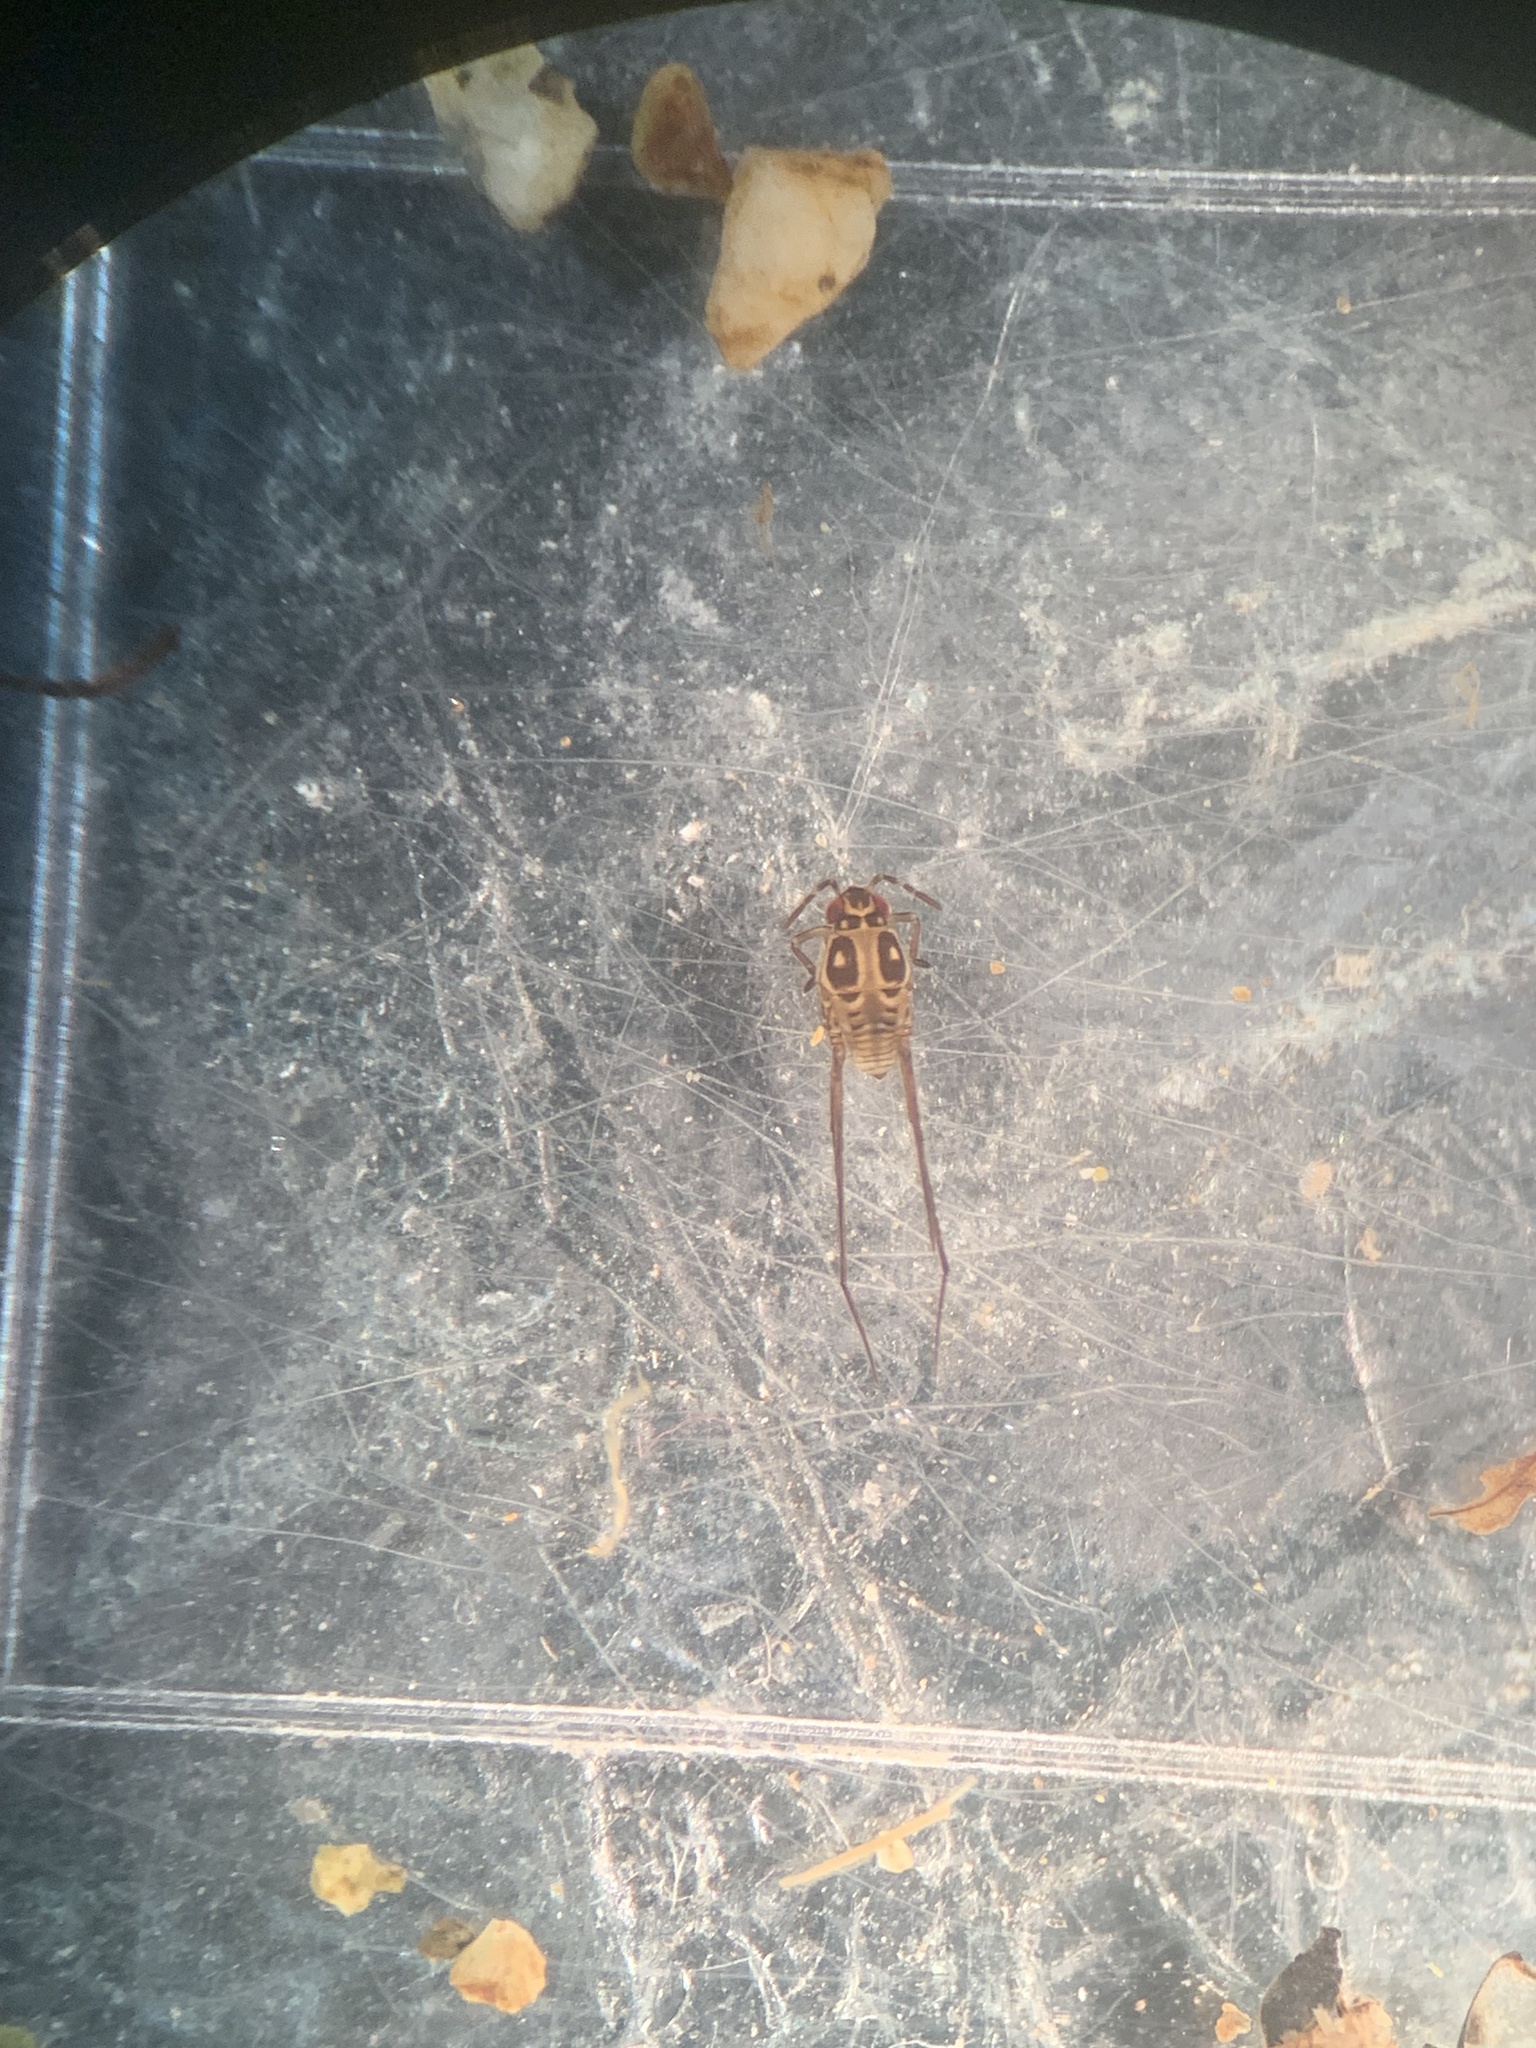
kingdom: Animalia
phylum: Arthropoda
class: Insecta
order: Hemiptera
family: Gerridae
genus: Trepobates
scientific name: Trepobates subnitidus
